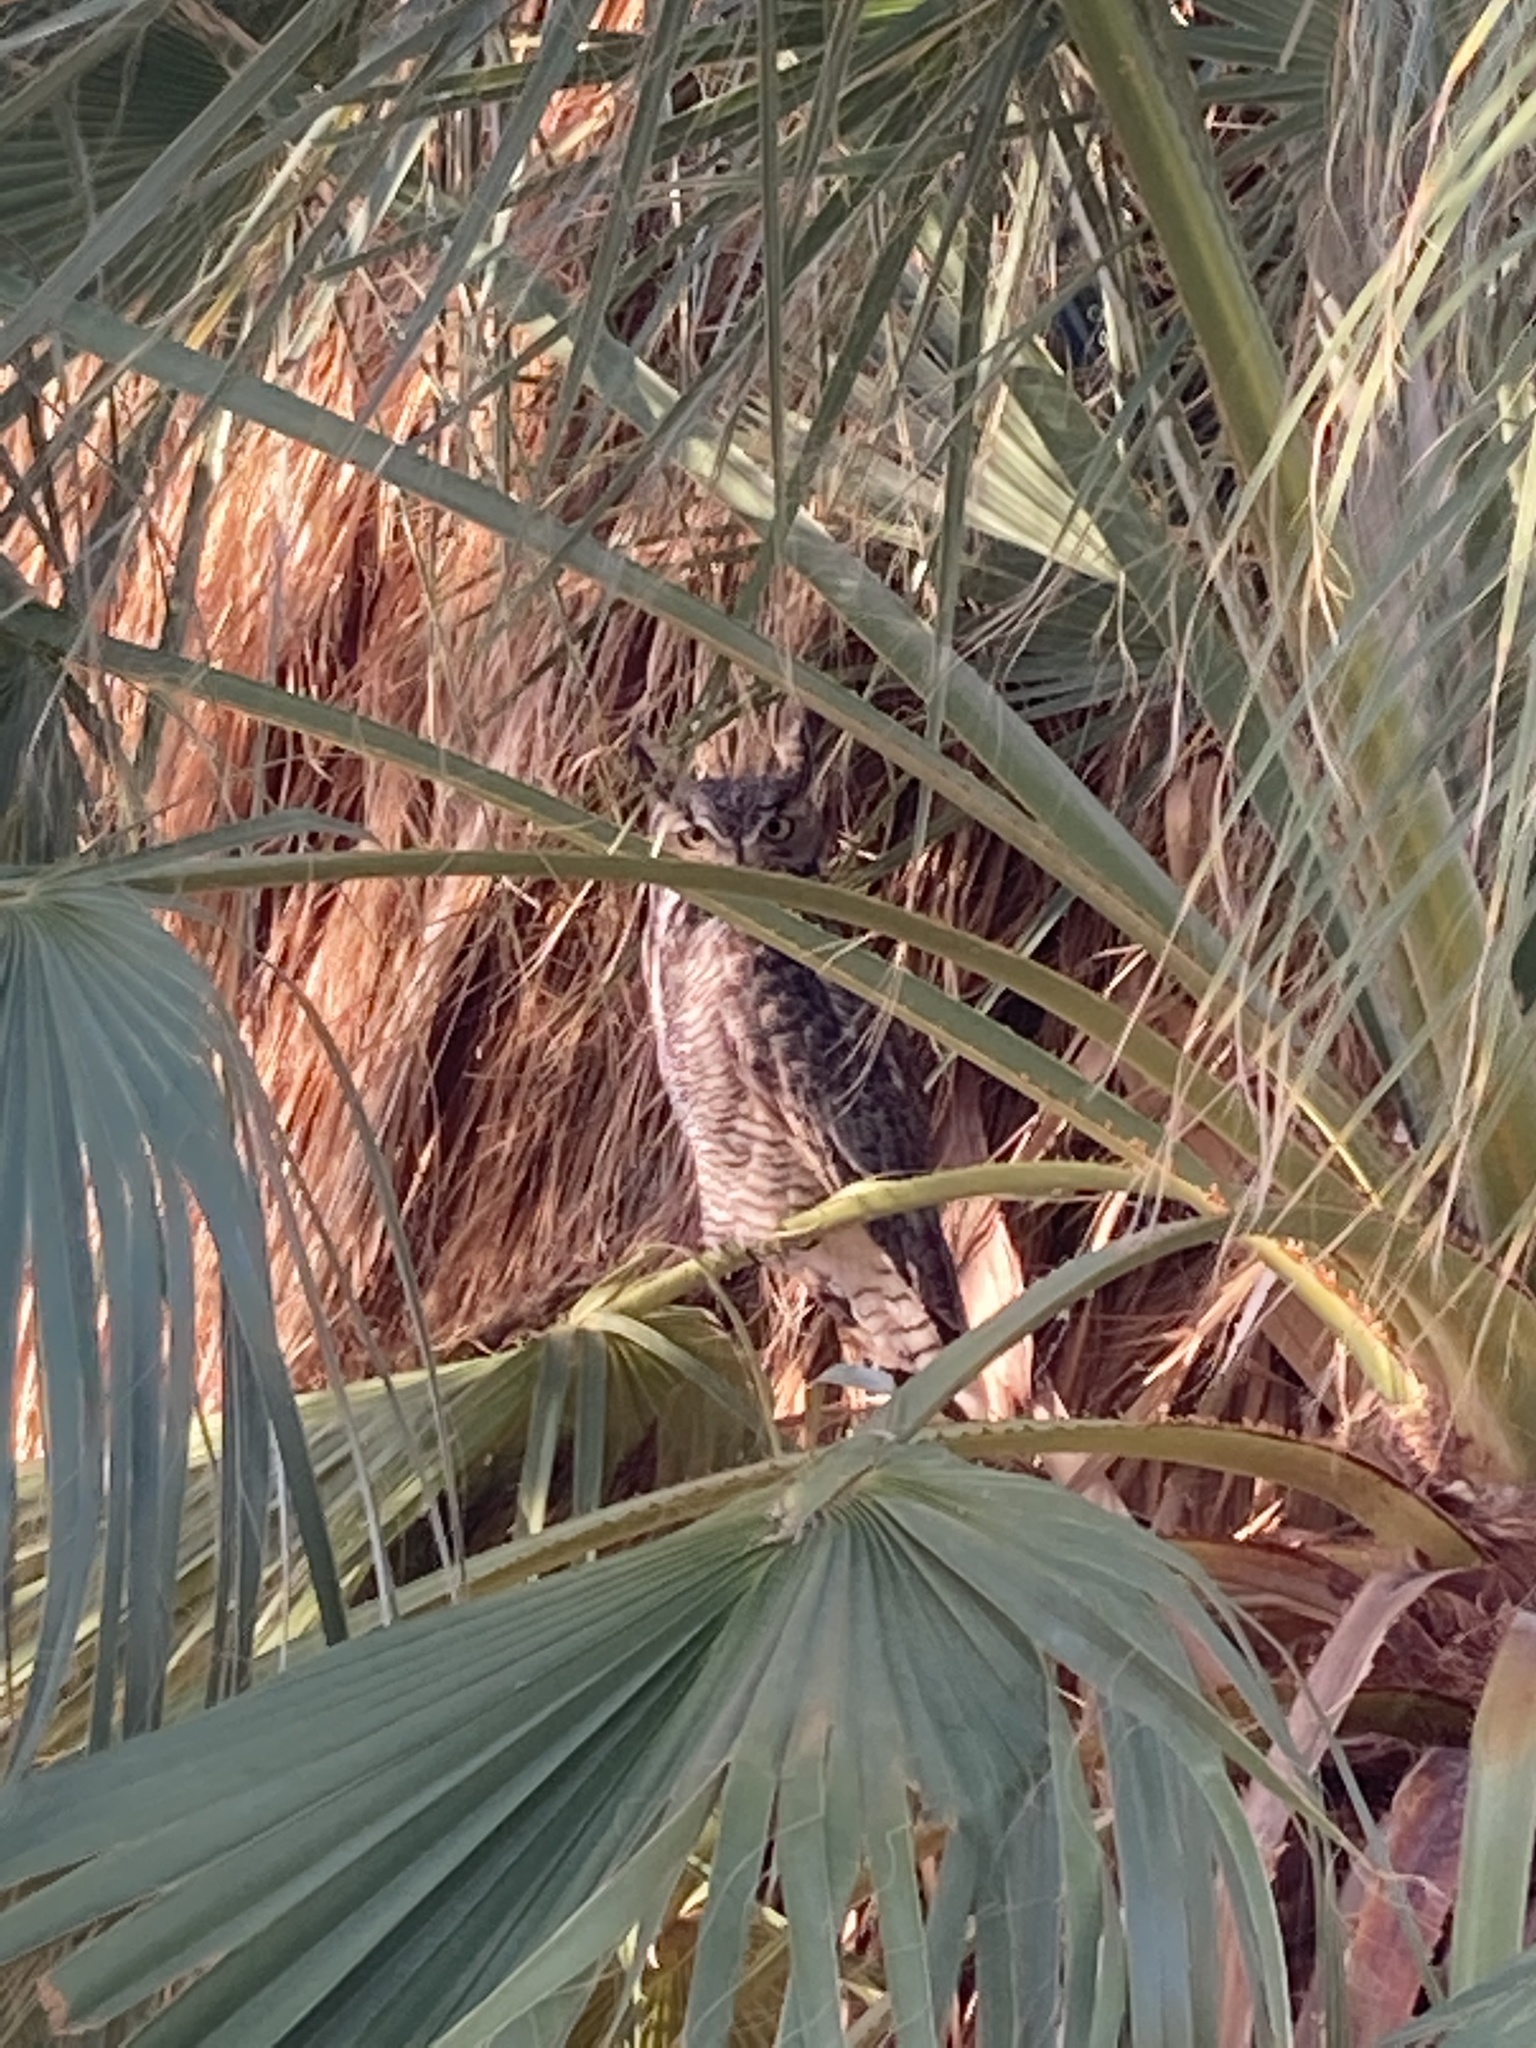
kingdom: Animalia
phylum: Chordata
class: Aves
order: Strigiformes
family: Strigidae
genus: Bubo
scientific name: Bubo virginianus
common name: Great horned owl
